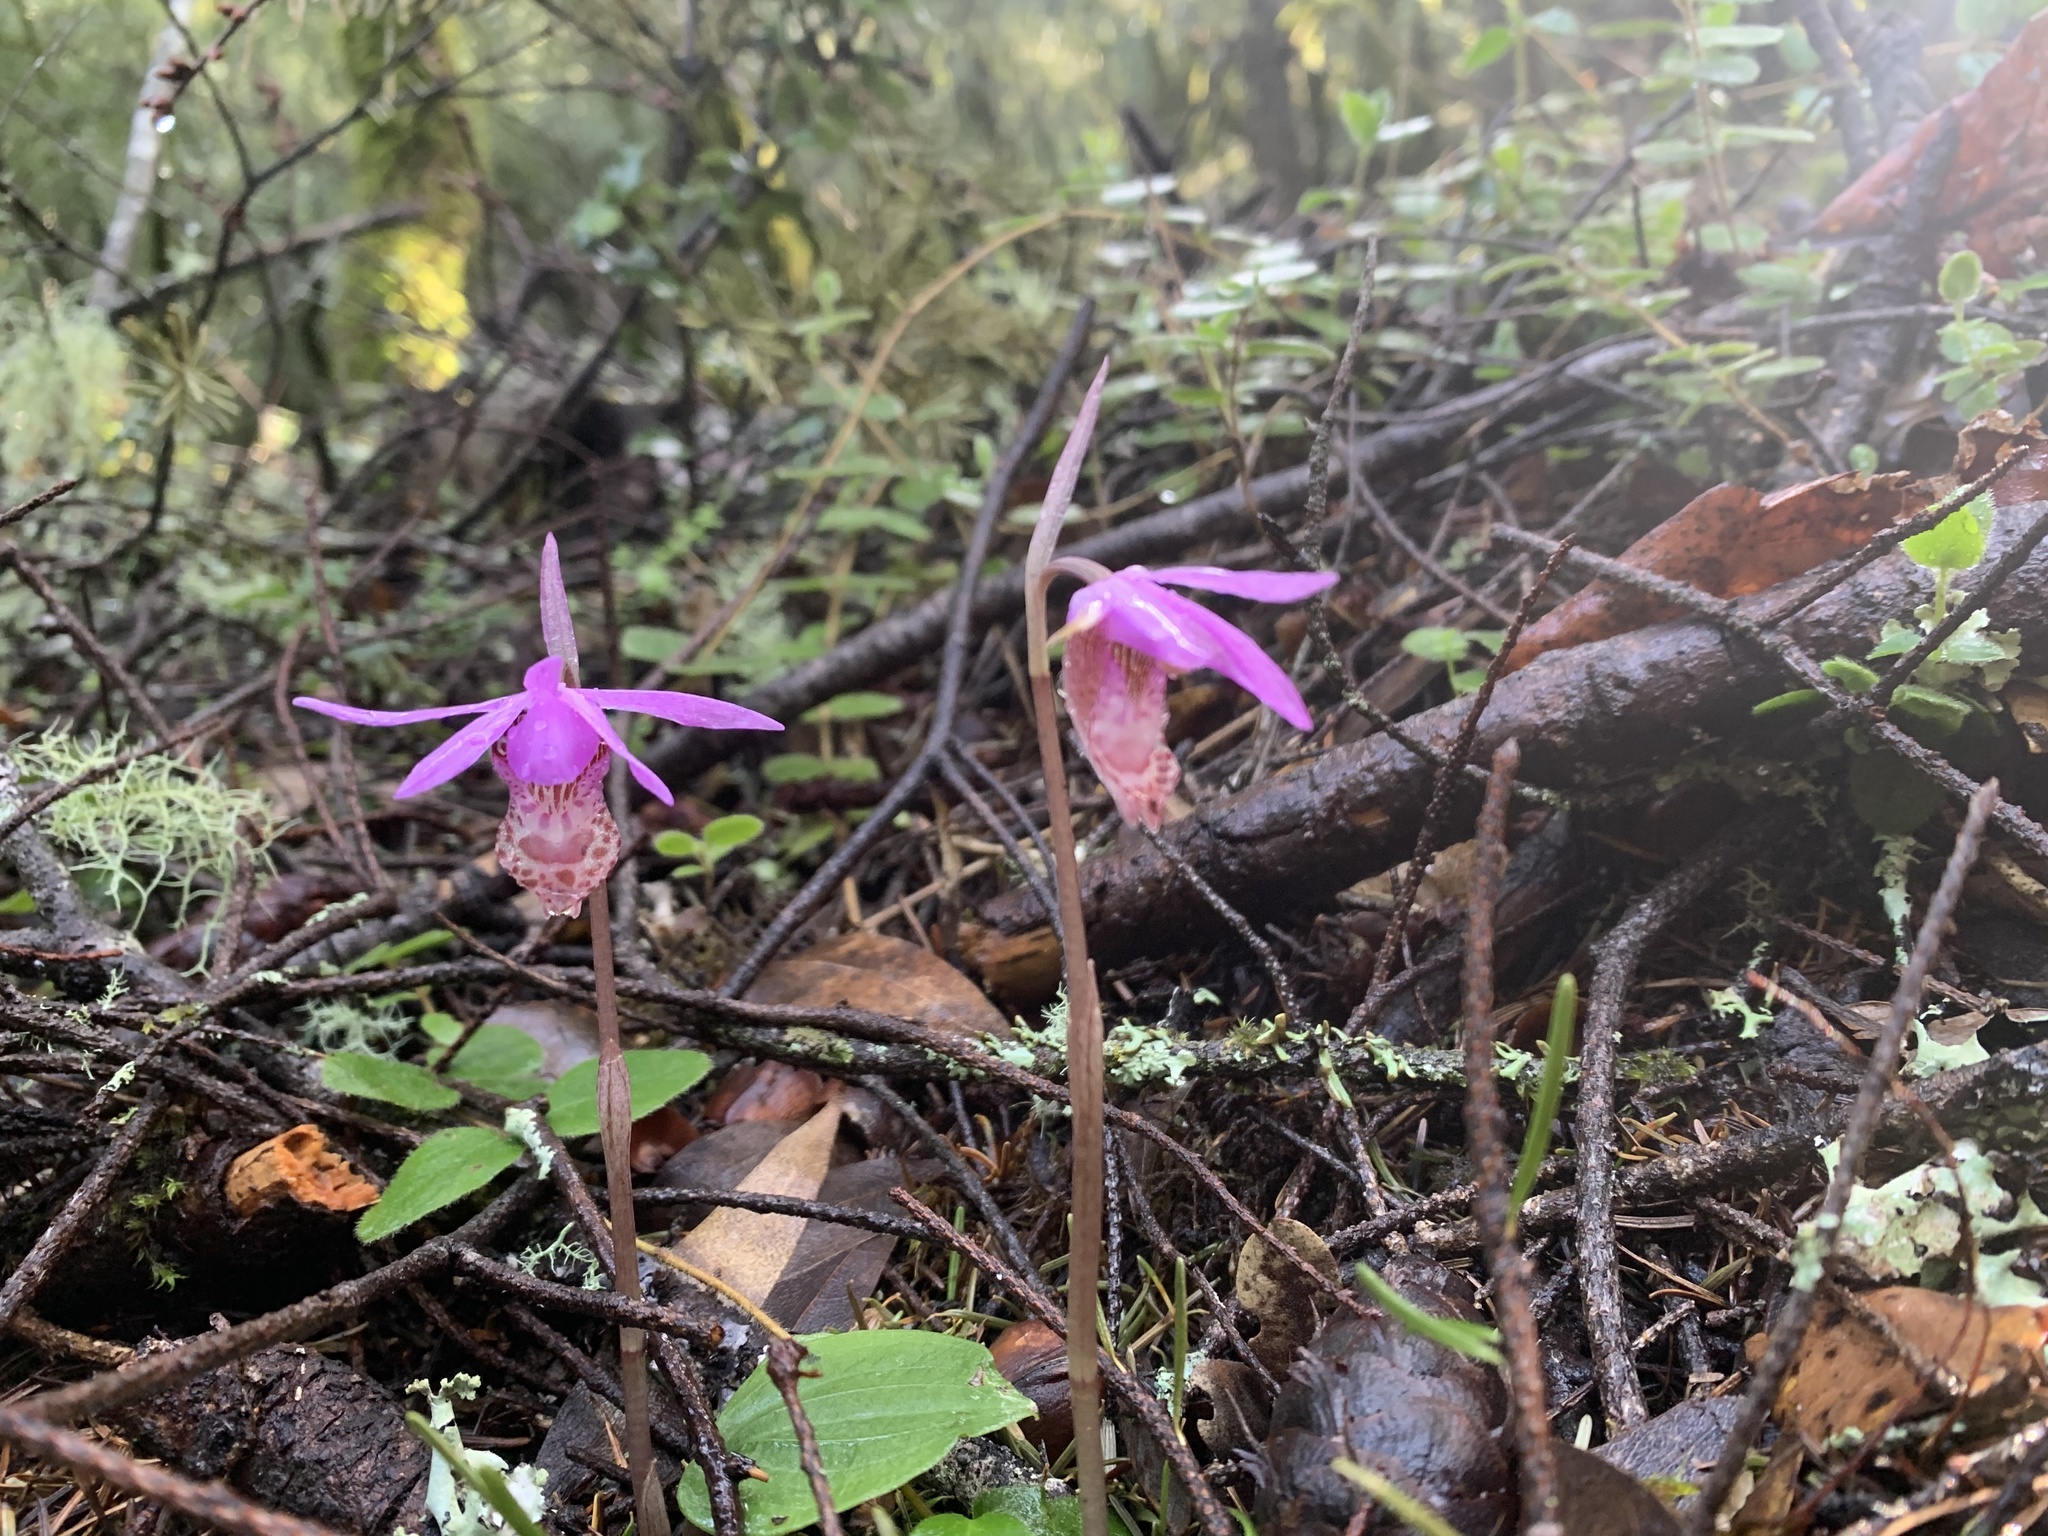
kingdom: Plantae
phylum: Tracheophyta
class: Liliopsida
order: Asparagales
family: Orchidaceae
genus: Calypso
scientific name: Calypso bulbosa
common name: Calypso
